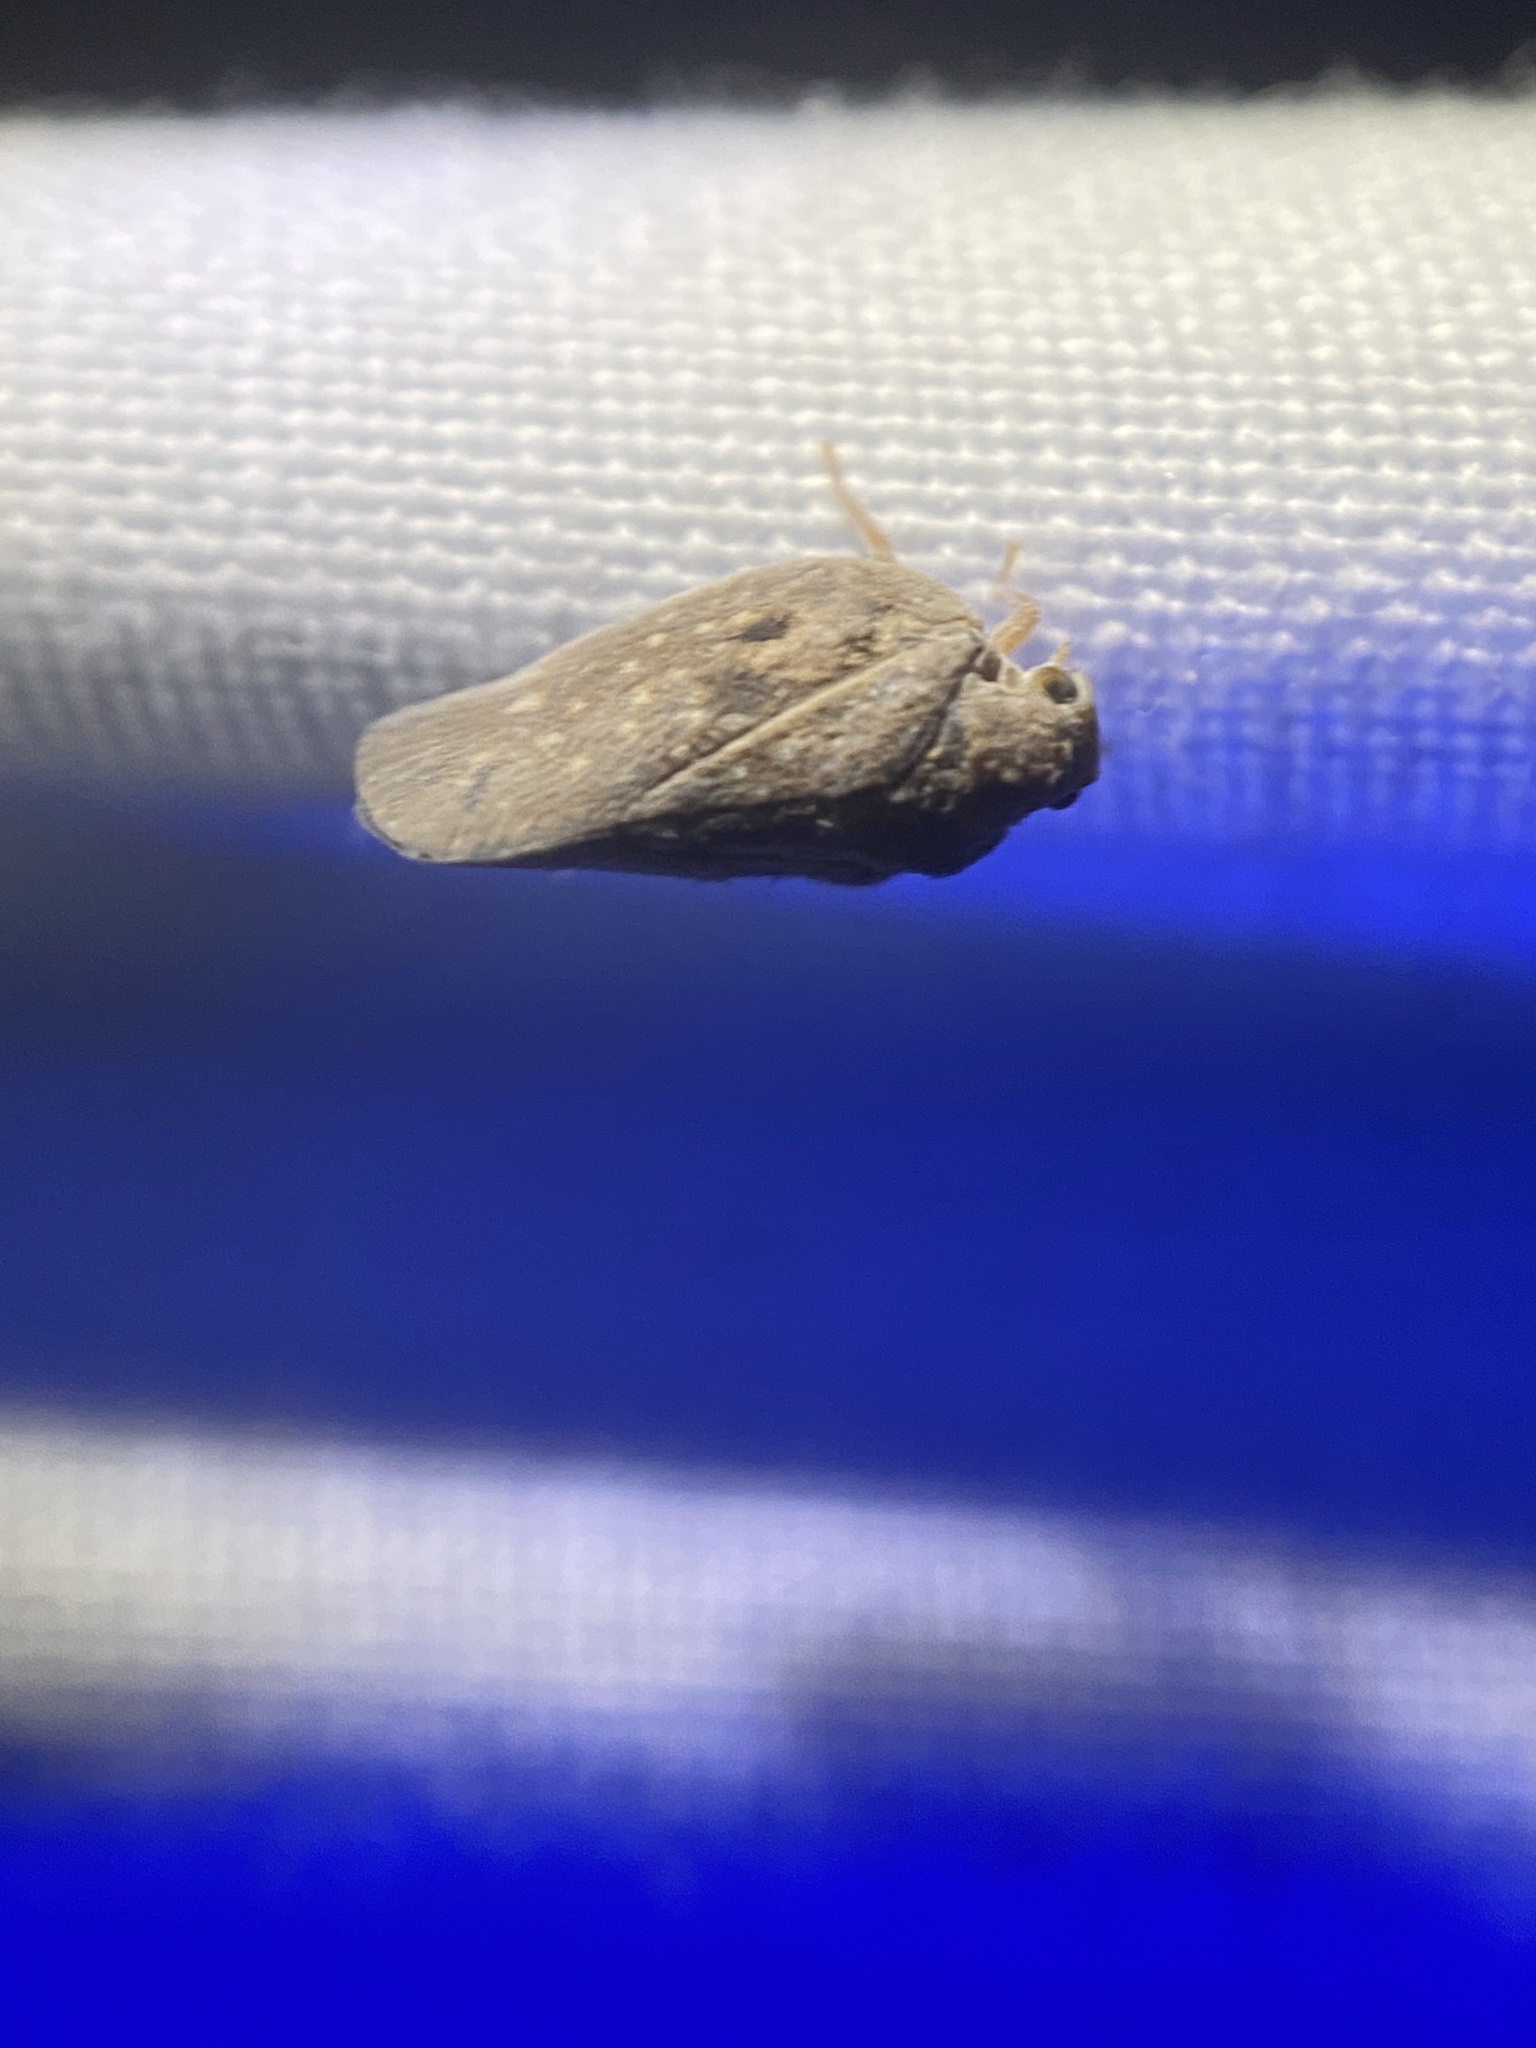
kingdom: Animalia
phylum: Arthropoda
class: Insecta
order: Hemiptera
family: Flatidae
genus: Metcalfa
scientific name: Metcalfa pruinosa
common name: Citrus flatid planthopper
